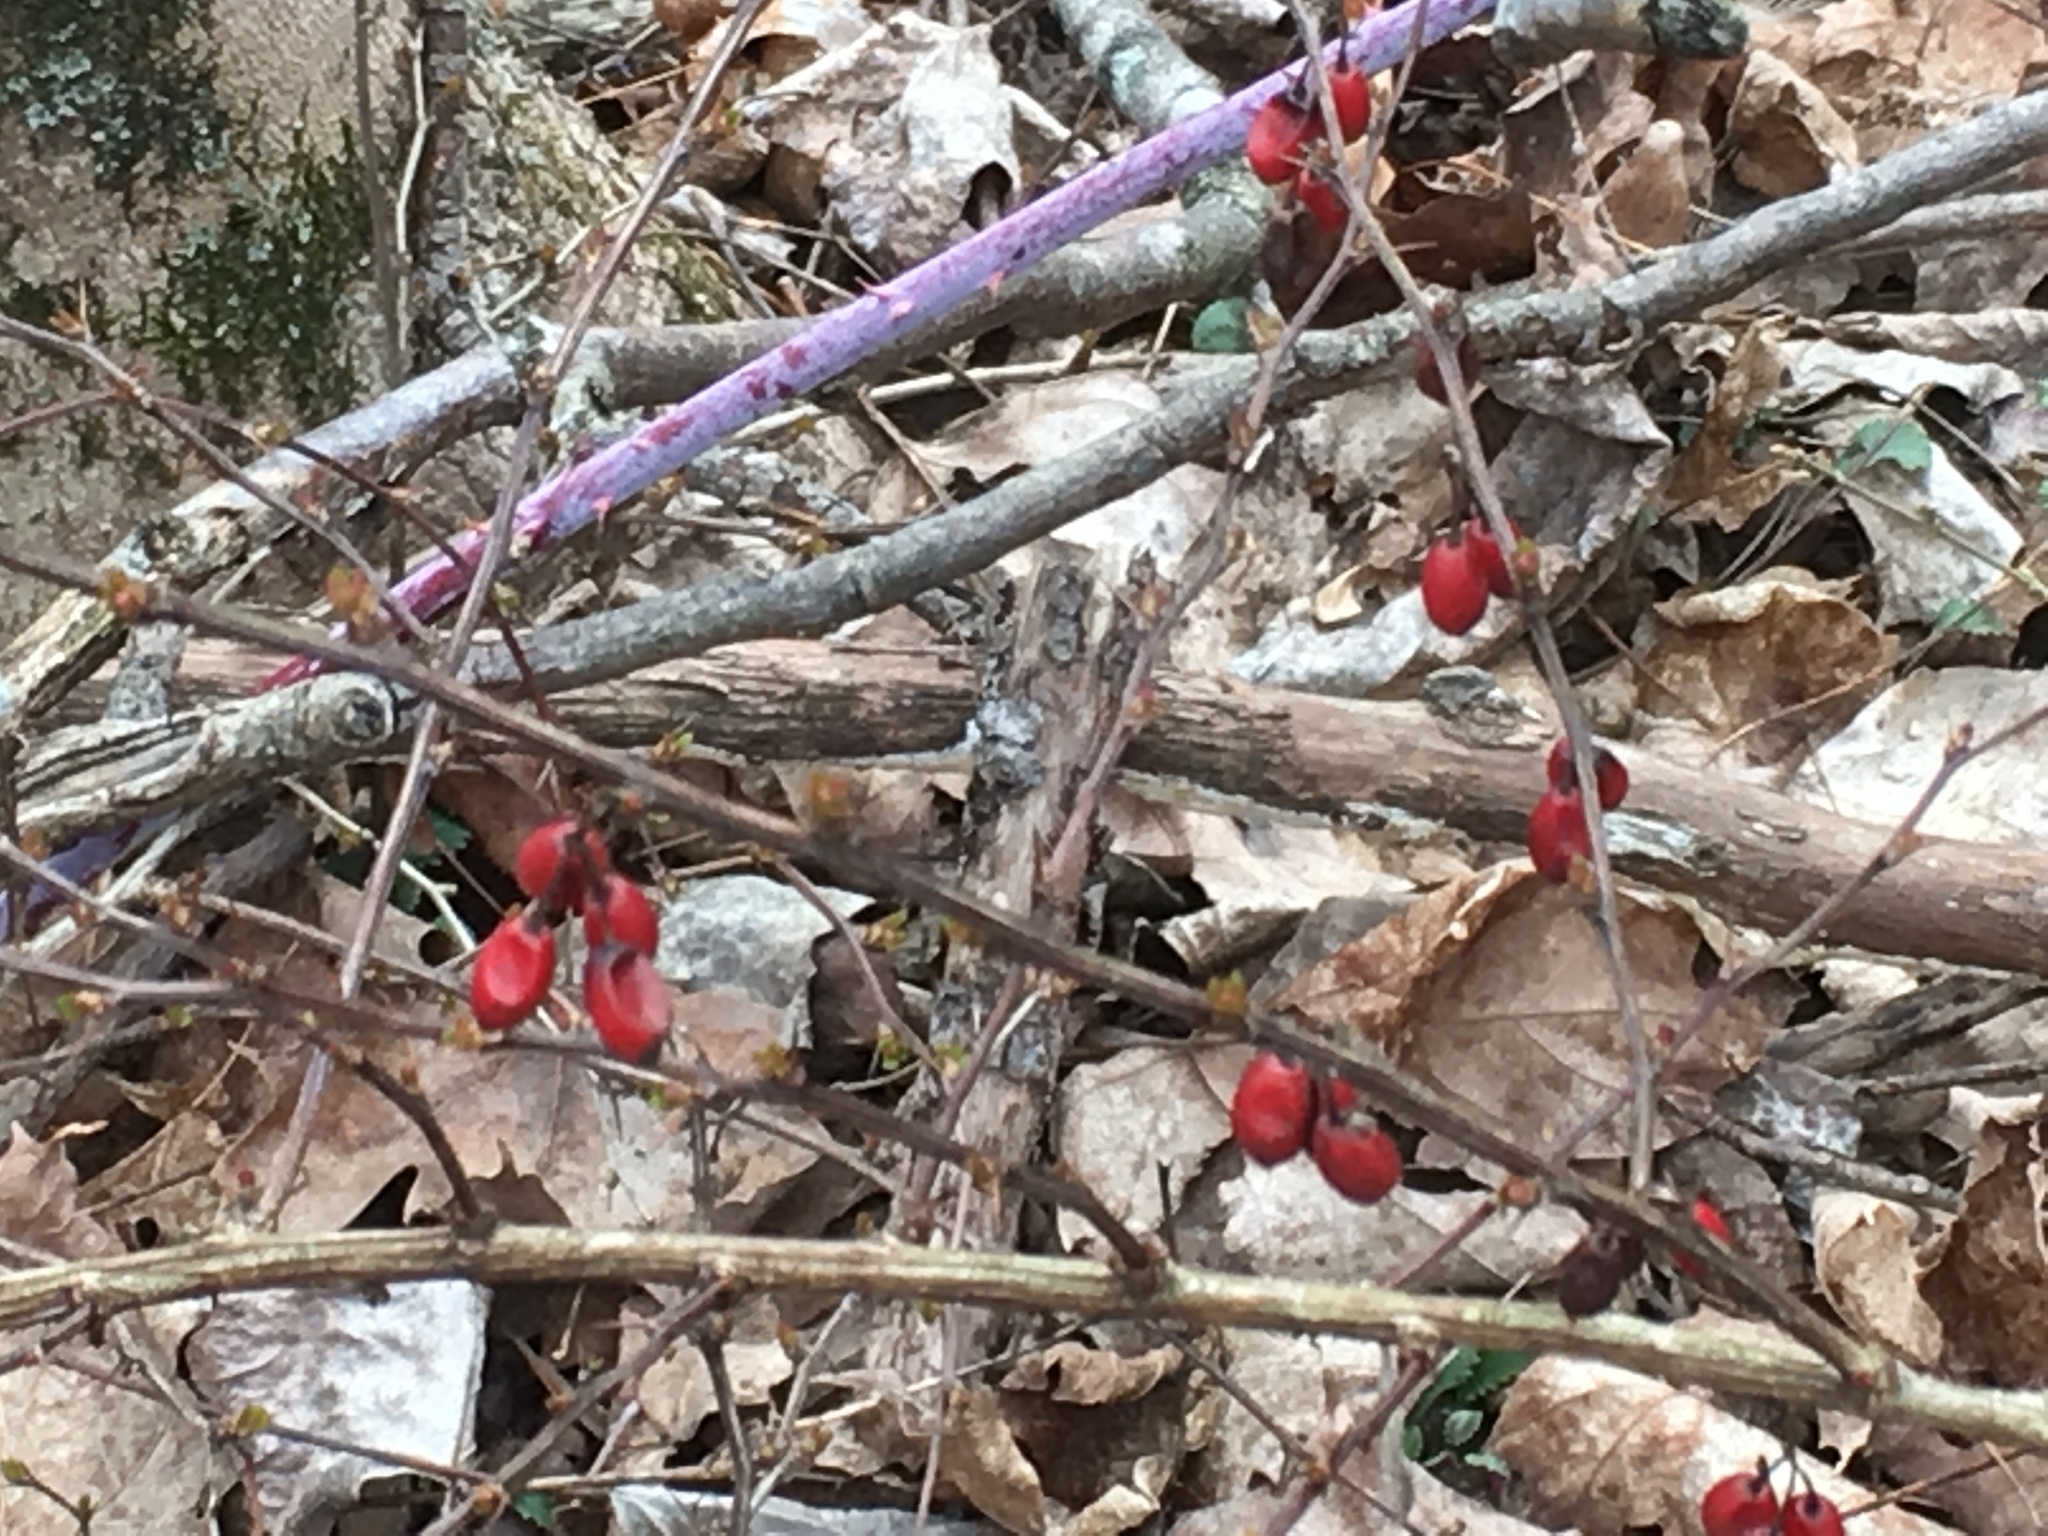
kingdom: Plantae
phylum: Tracheophyta
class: Magnoliopsida
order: Ranunculales
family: Berberidaceae
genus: Berberis
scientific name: Berberis thunbergii
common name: Japanese barberry
